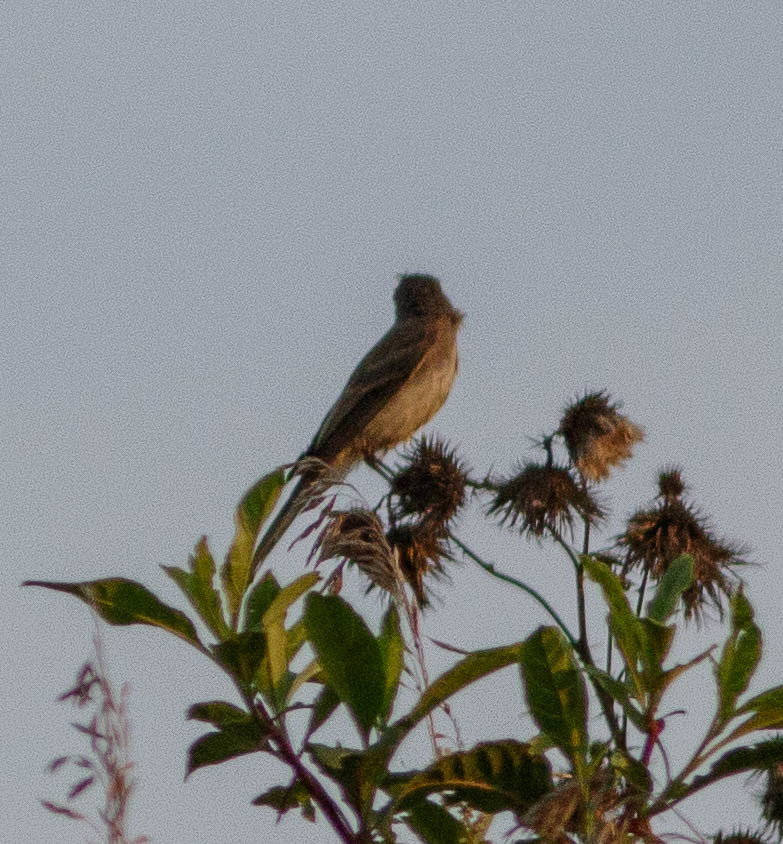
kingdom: Animalia
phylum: Chordata
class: Aves
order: Passeriformes
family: Tyrannidae
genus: Empidonax
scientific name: Empidonax traillii
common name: Willow flycatcher
